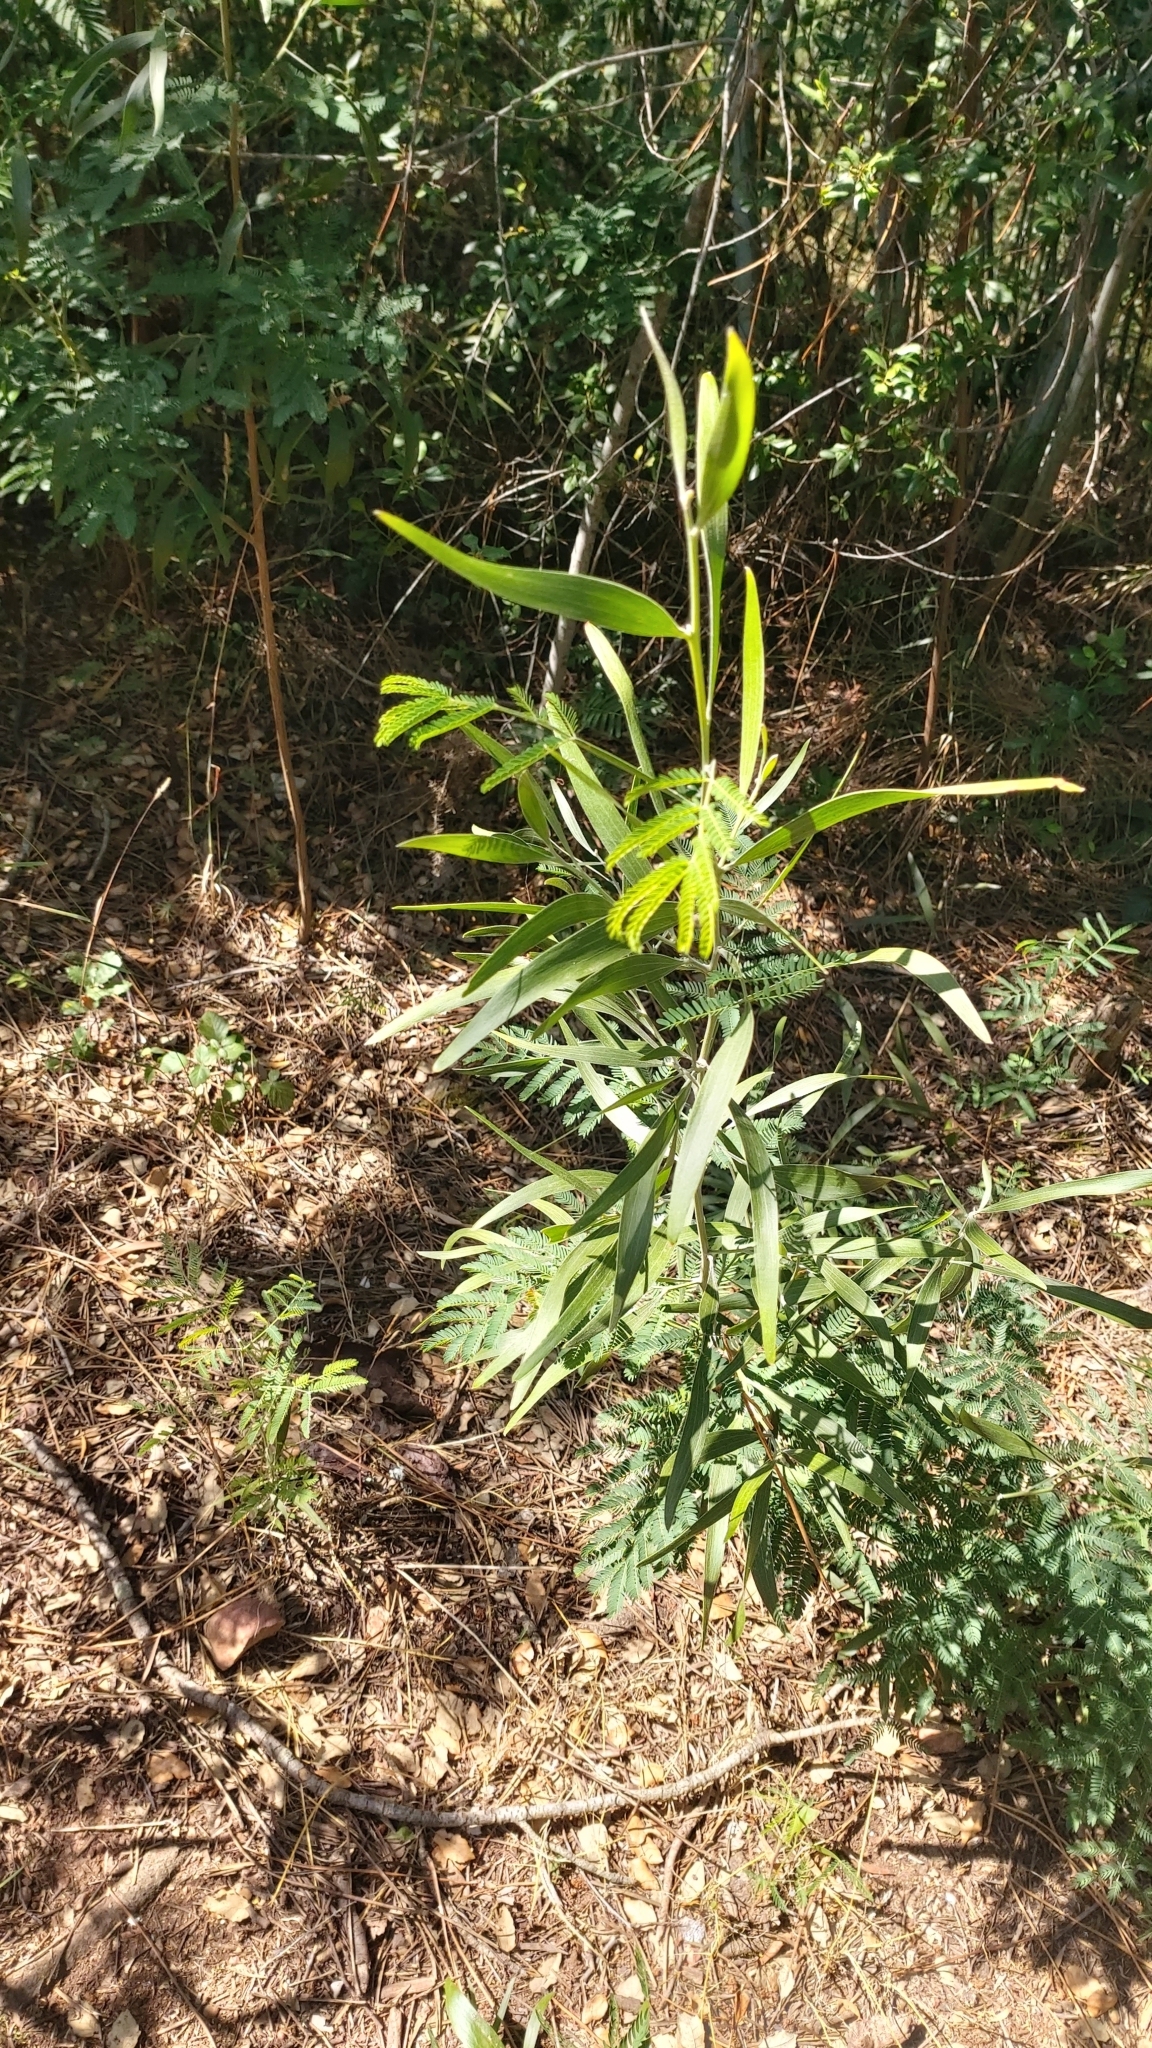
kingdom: Plantae
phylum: Tracheophyta
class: Magnoliopsida
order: Fabales
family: Fabaceae
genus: Acacia
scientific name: Acacia melanoxylon
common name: Blackwood
